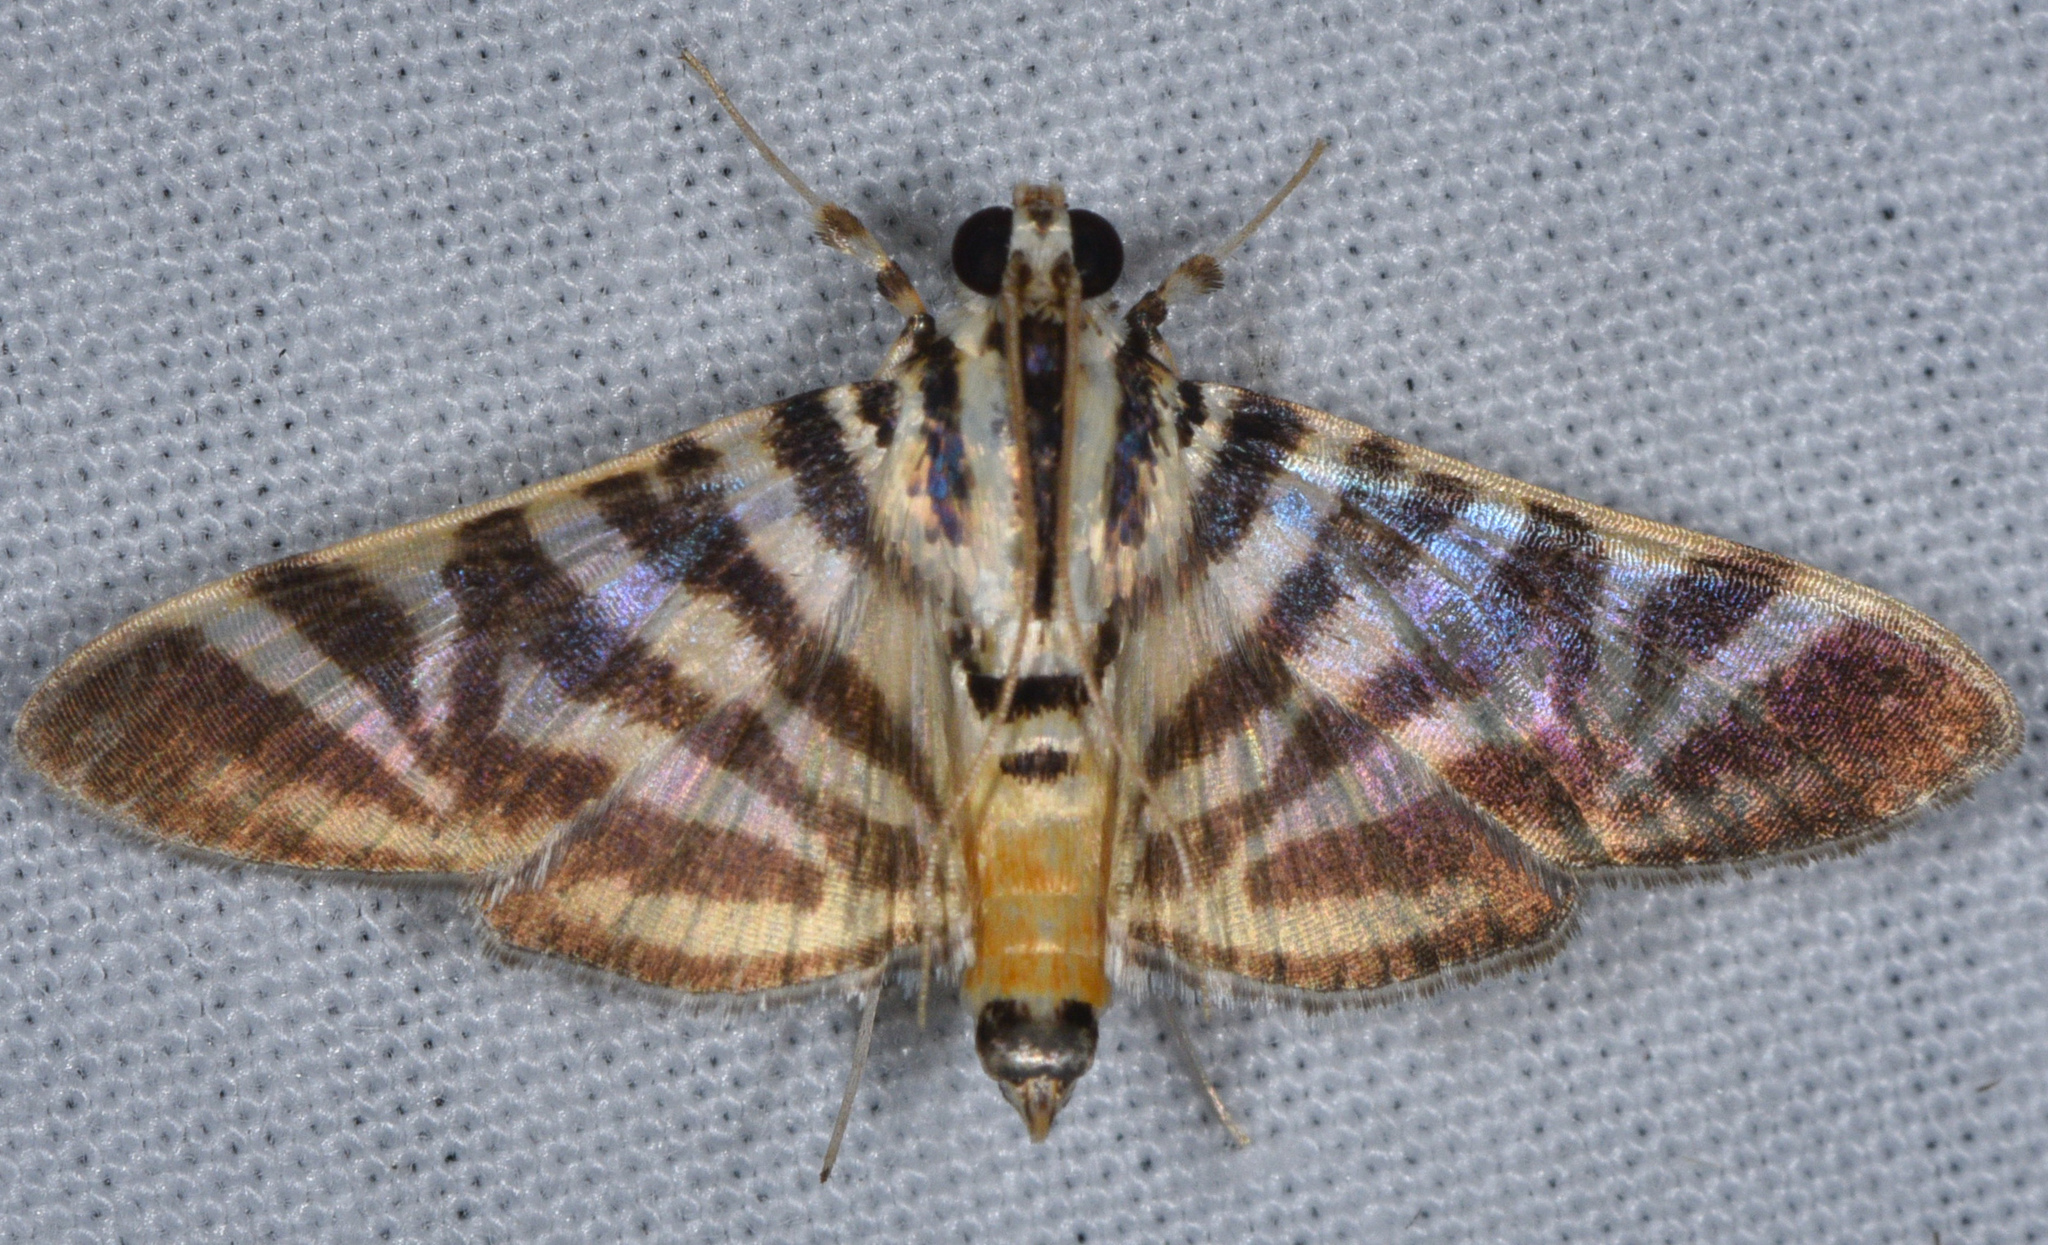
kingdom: Animalia
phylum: Arthropoda
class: Insecta
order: Lepidoptera
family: Crambidae
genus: Zebronia
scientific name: Zebronia Spilomela discordens
